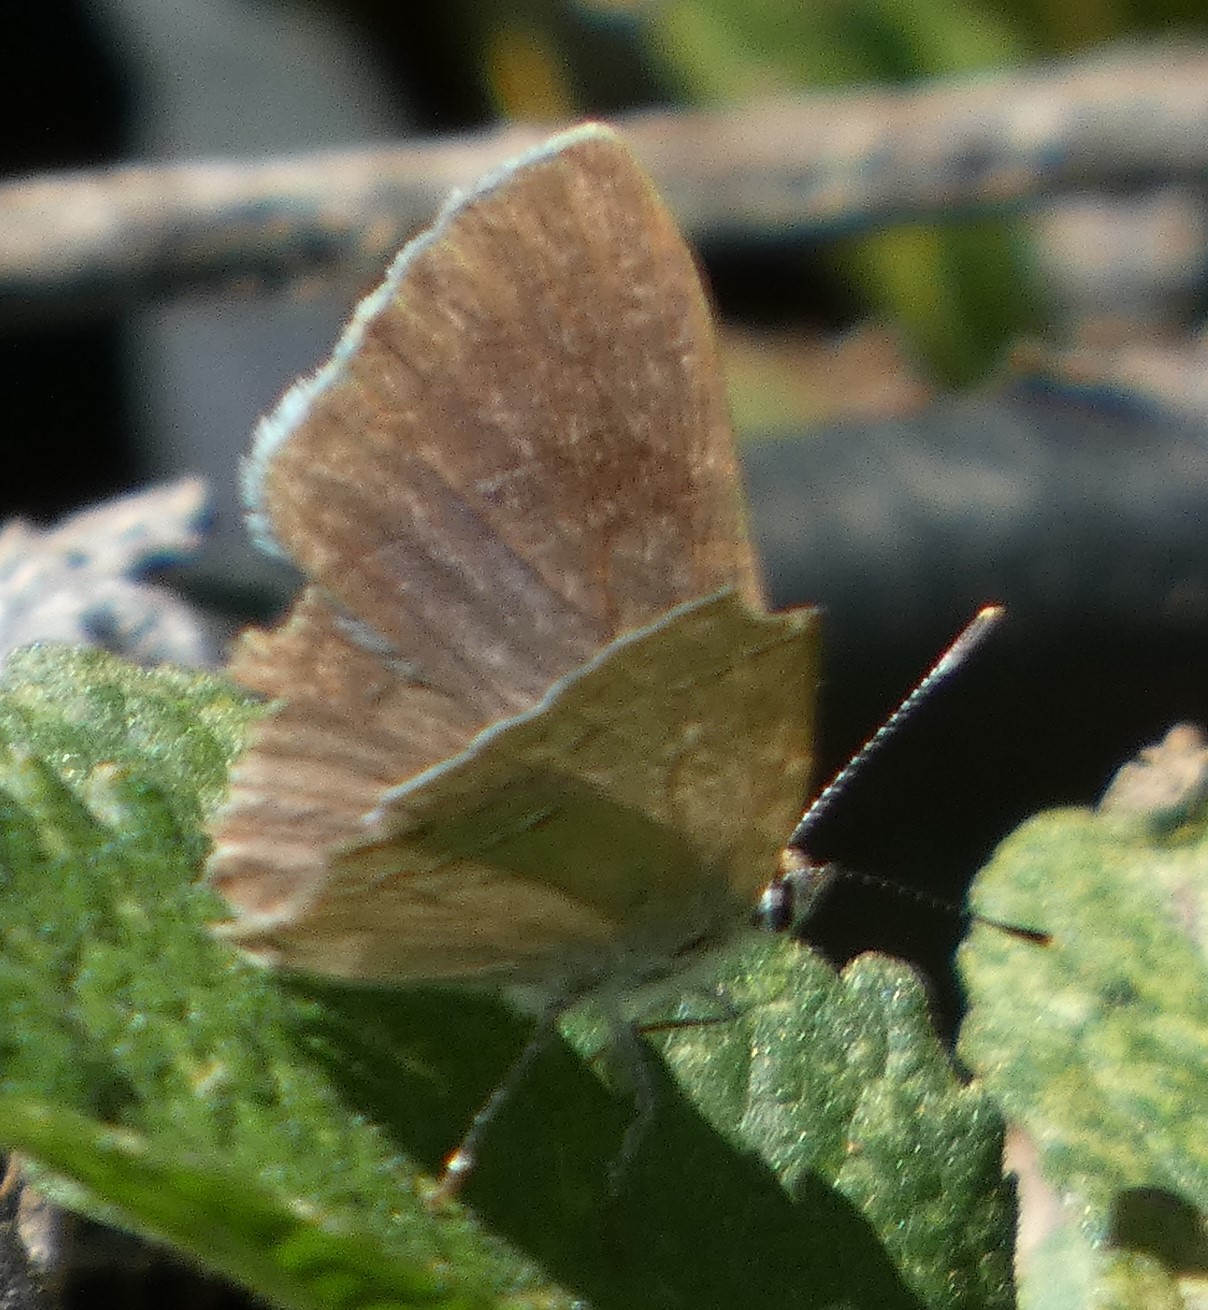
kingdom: Animalia
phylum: Arthropoda
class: Insecta
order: Lepidoptera
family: Lycaenidae
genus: Strymon
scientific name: Strymon melinus
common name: Gray hairstreak
